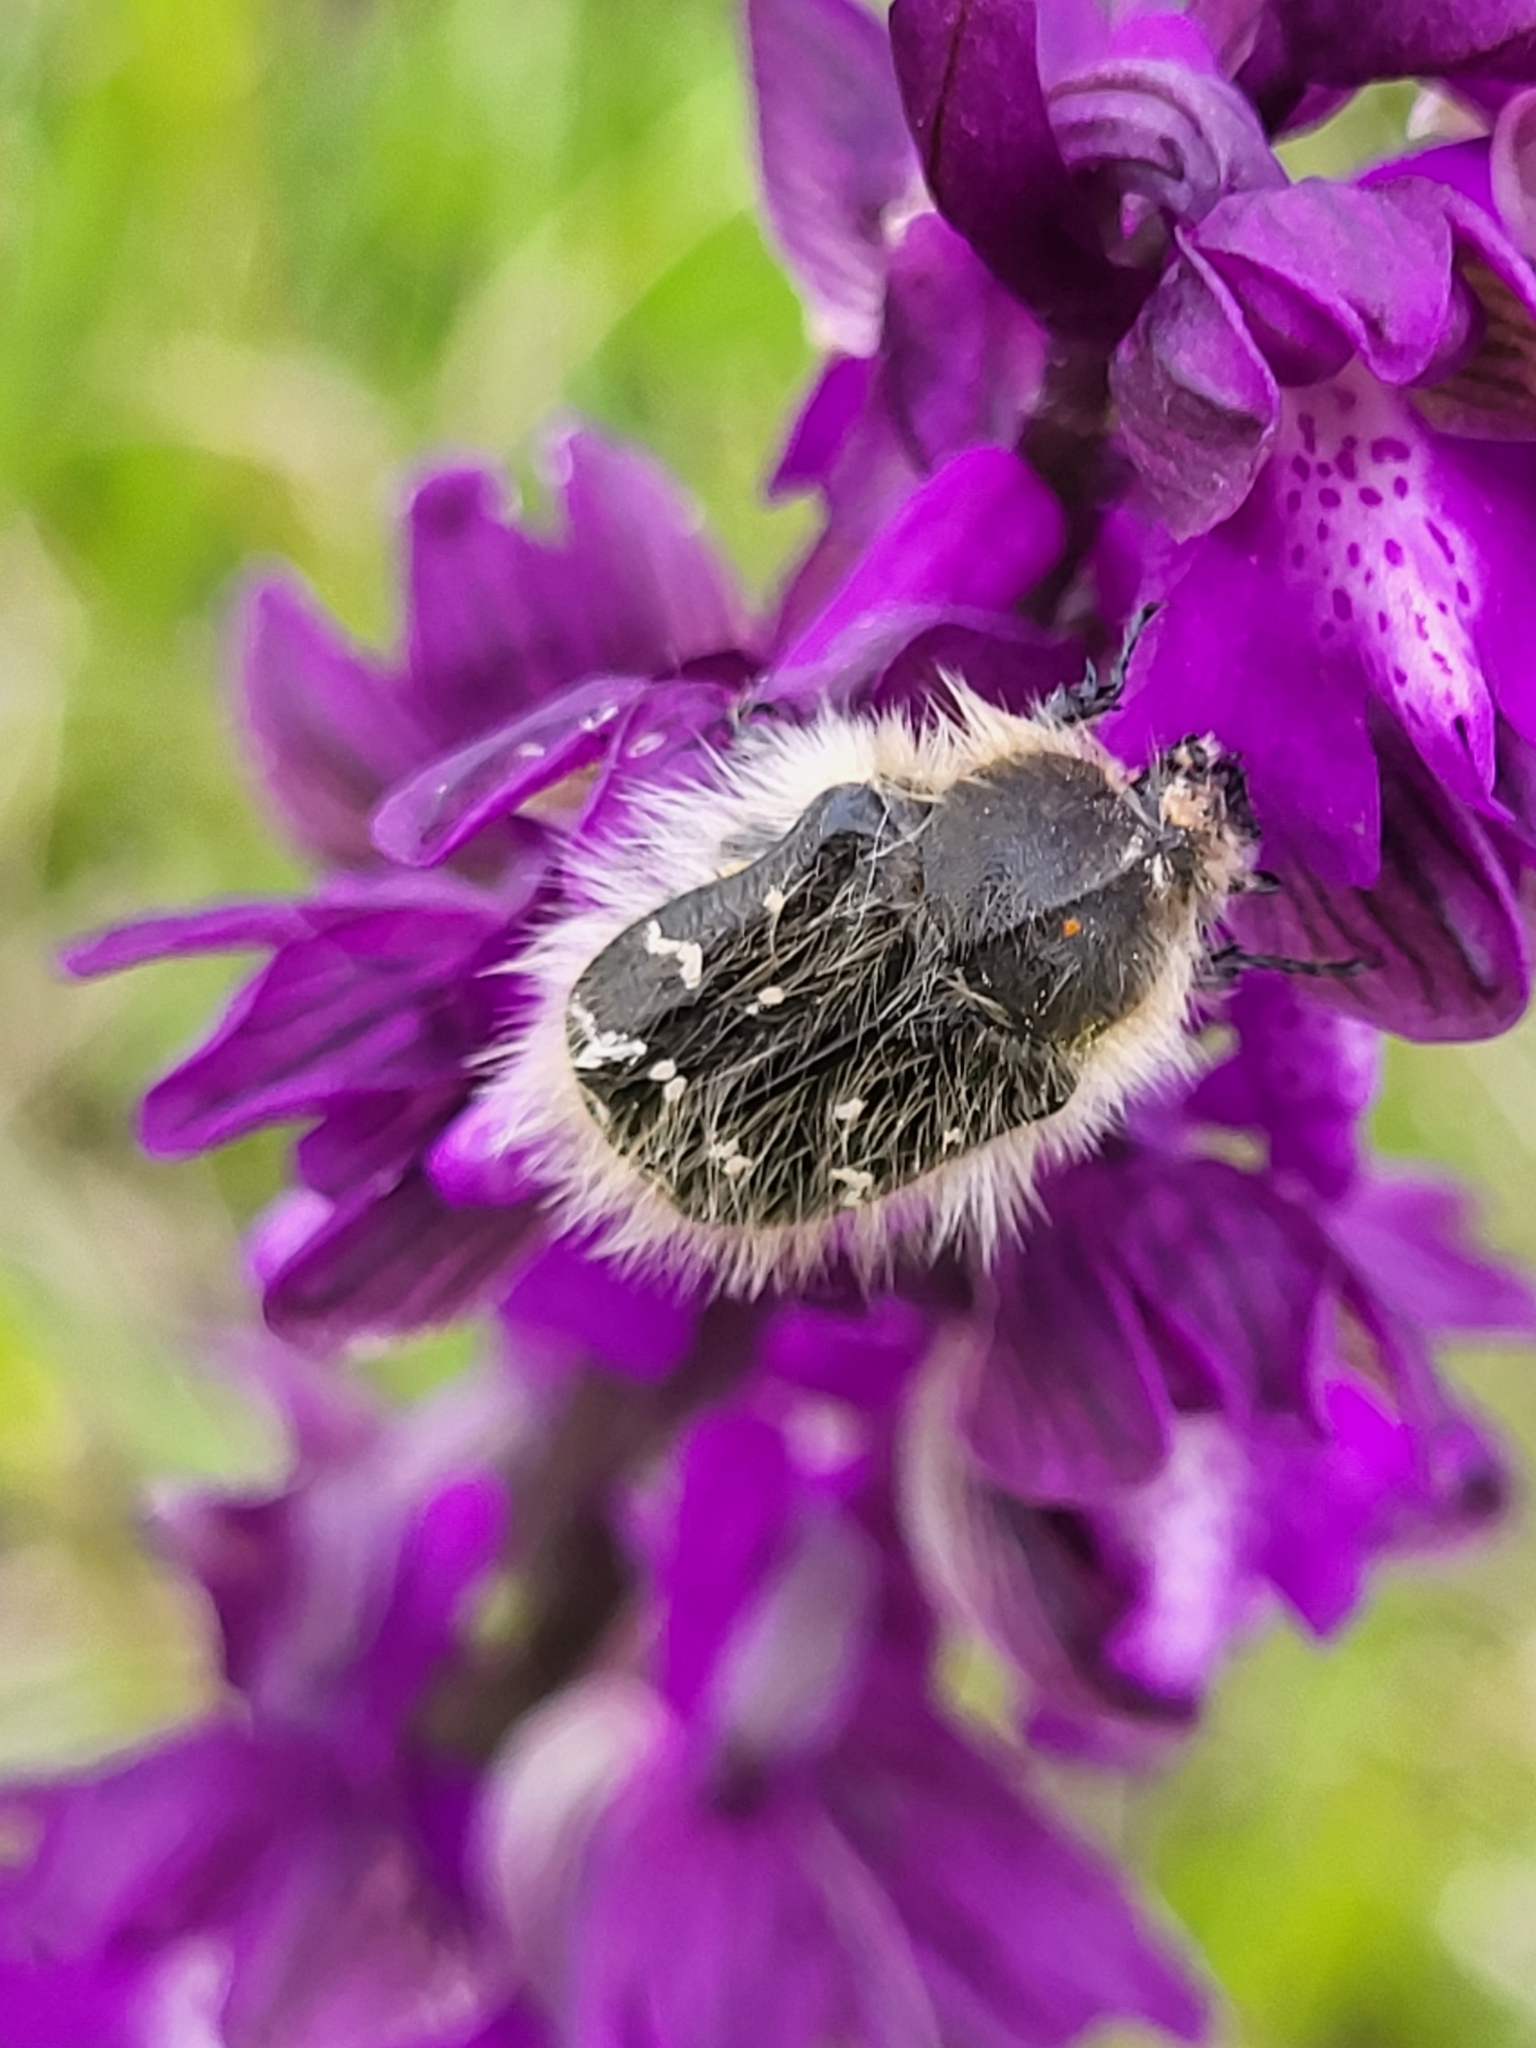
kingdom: Animalia
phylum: Arthropoda
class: Insecta
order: Coleoptera
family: Scarabaeidae
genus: Tropinota
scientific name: Tropinota hirta
